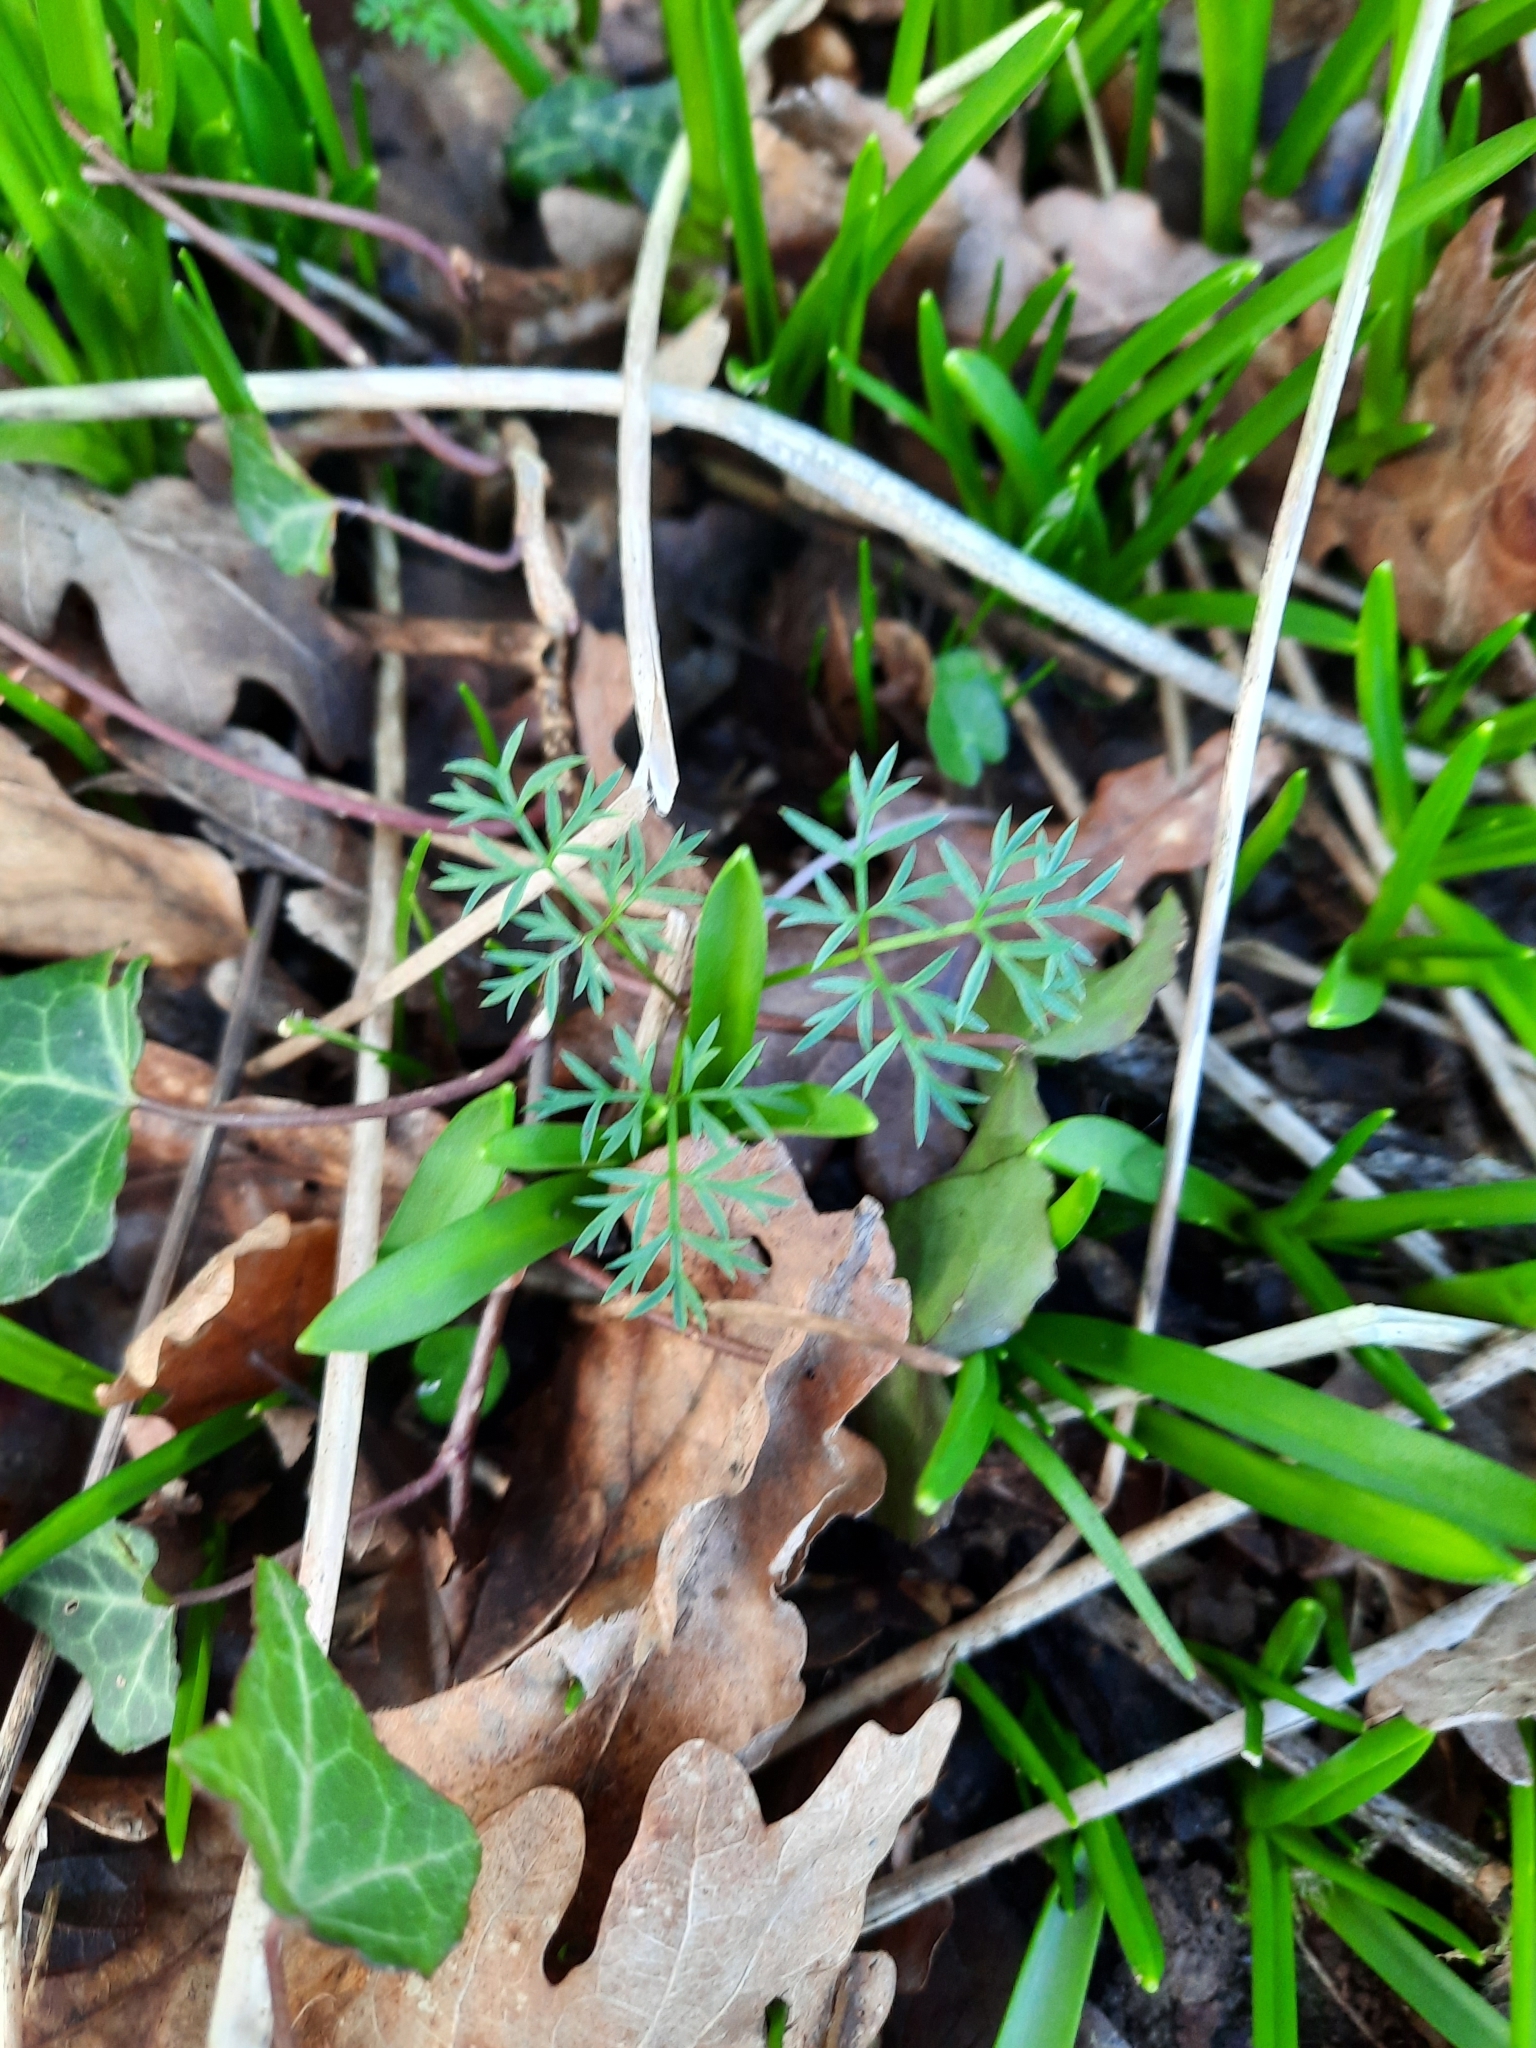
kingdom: Plantae
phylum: Tracheophyta
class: Magnoliopsida
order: Apiales
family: Apiaceae
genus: Conopodium
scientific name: Conopodium majus
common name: Pignut
